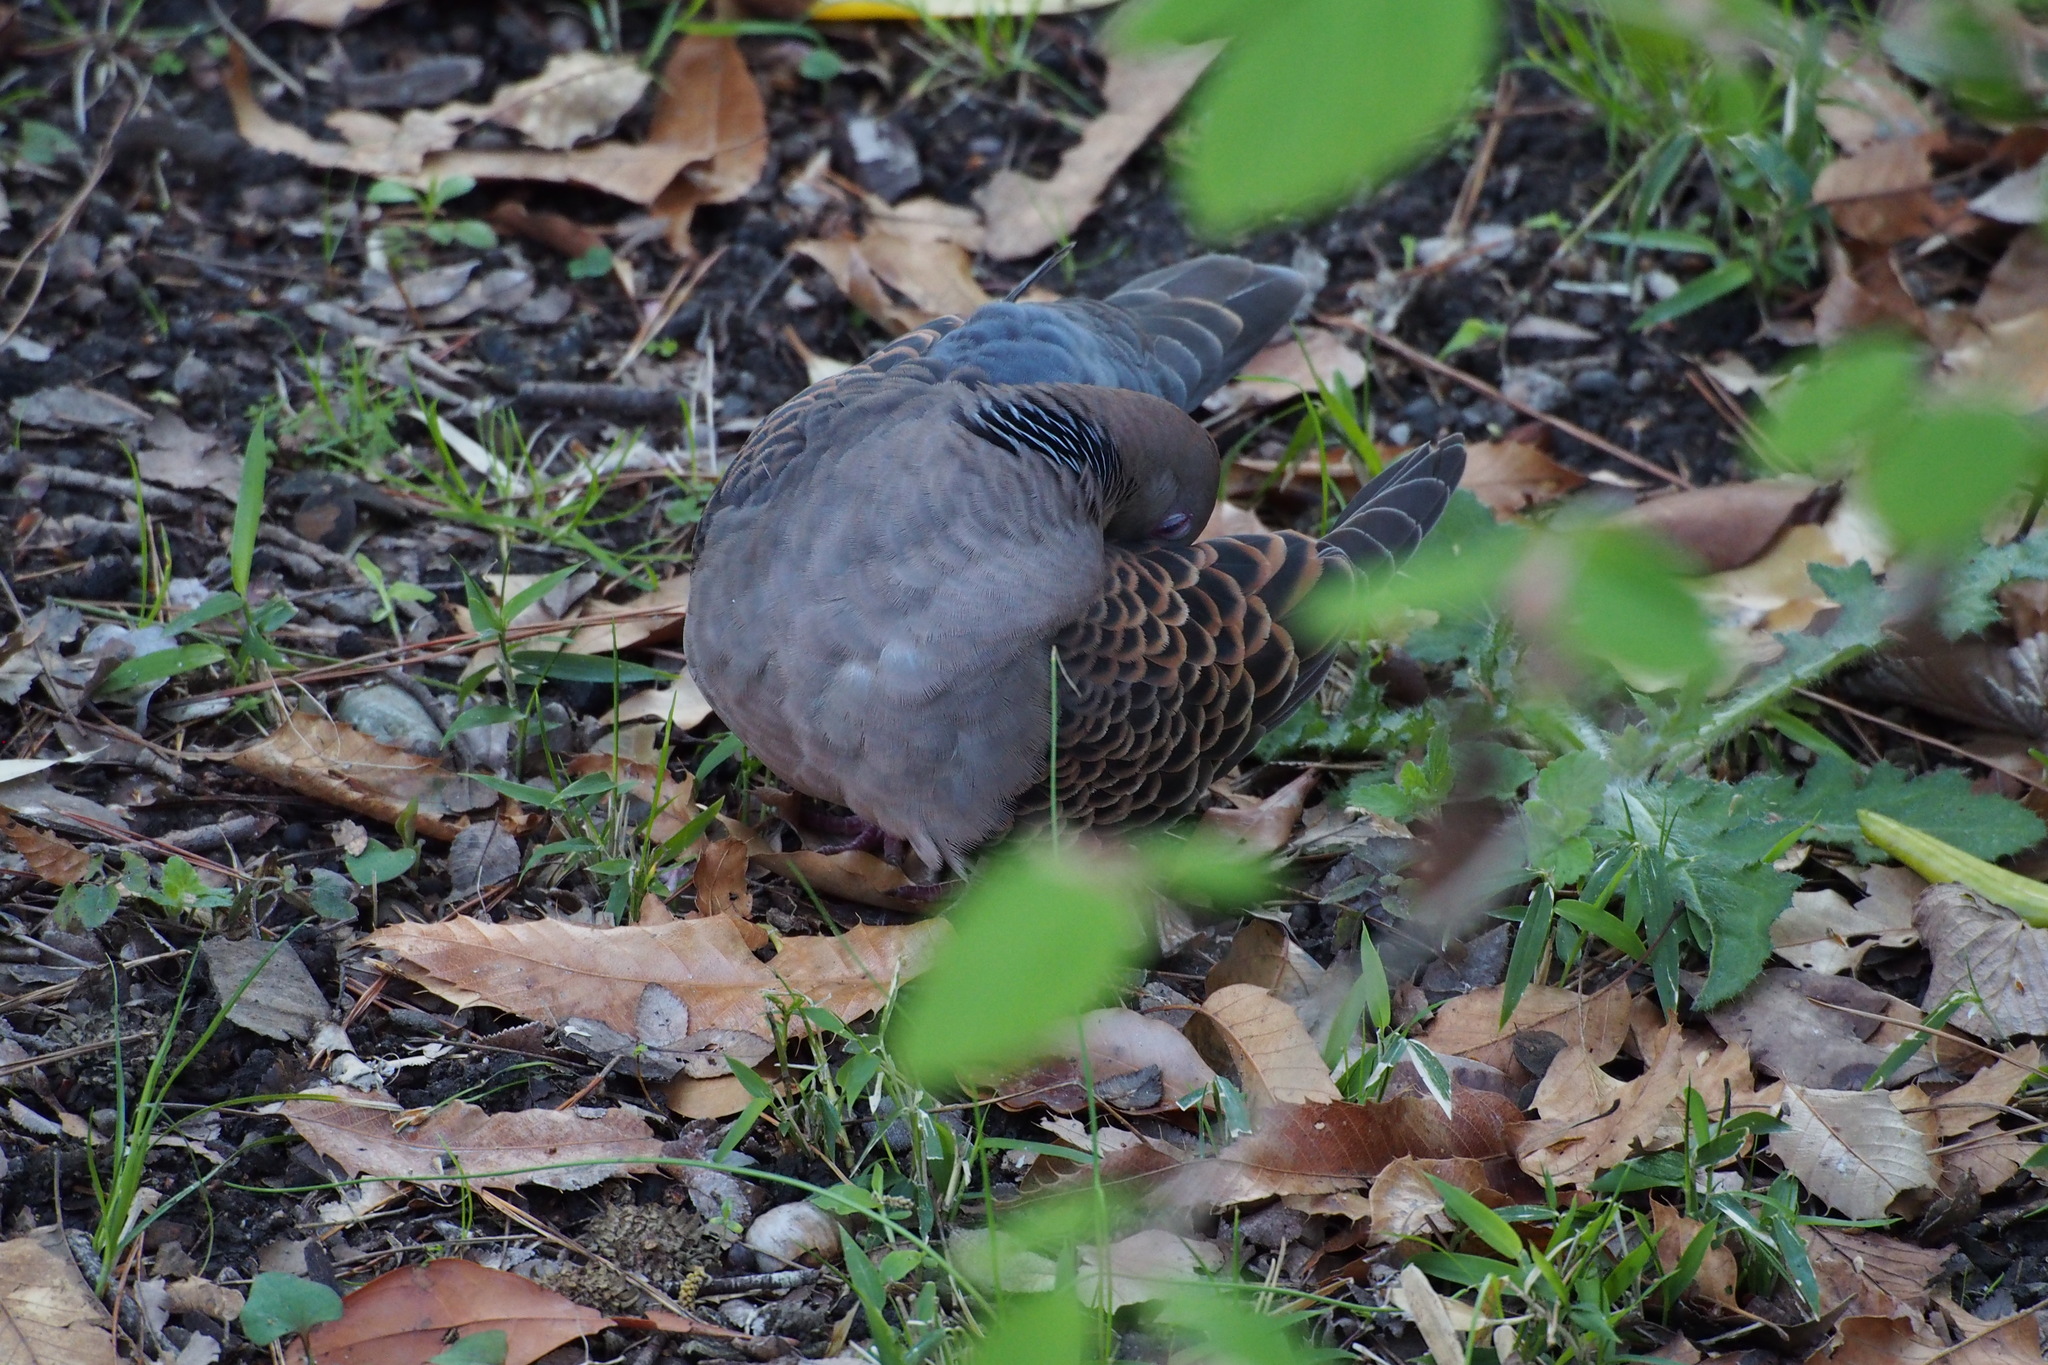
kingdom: Animalia
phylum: Chordata
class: Aves
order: Columbiformes
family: Columbidae
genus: Streptopelia
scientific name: Streptopelia orientalis
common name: Oriental turtle dove
